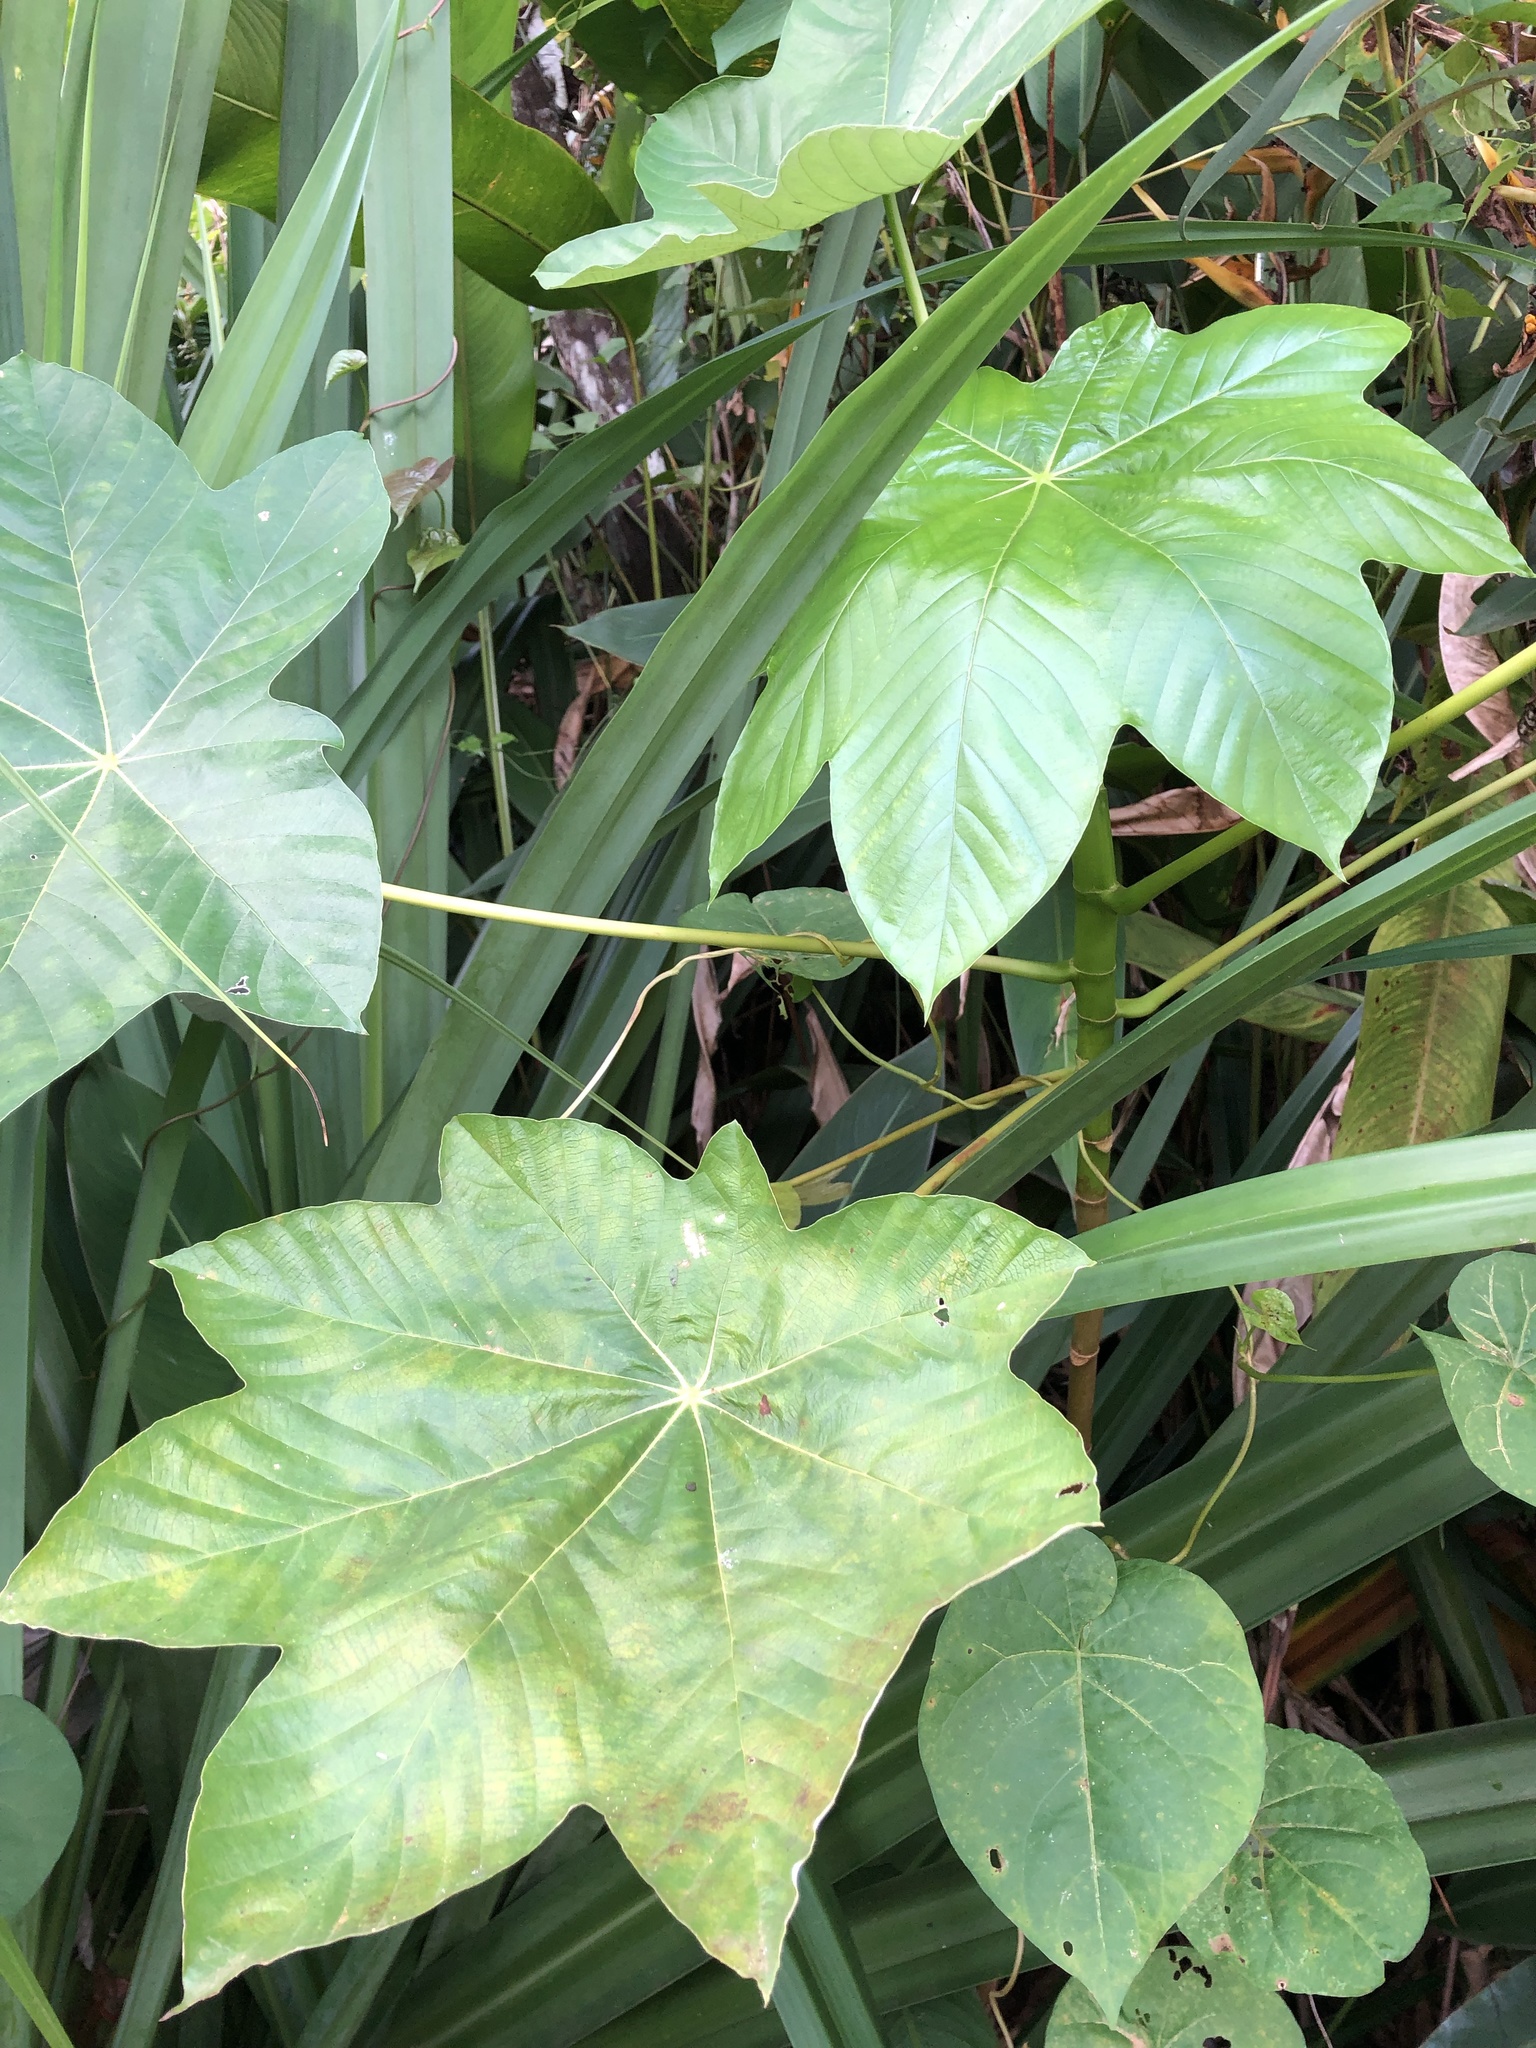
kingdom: Plantae
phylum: Tracheophyta
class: Magnoliopsida
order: Rosales
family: Urticaceae
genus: Cecropia
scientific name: Cecropia schreberiana
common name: Trumpet tree
